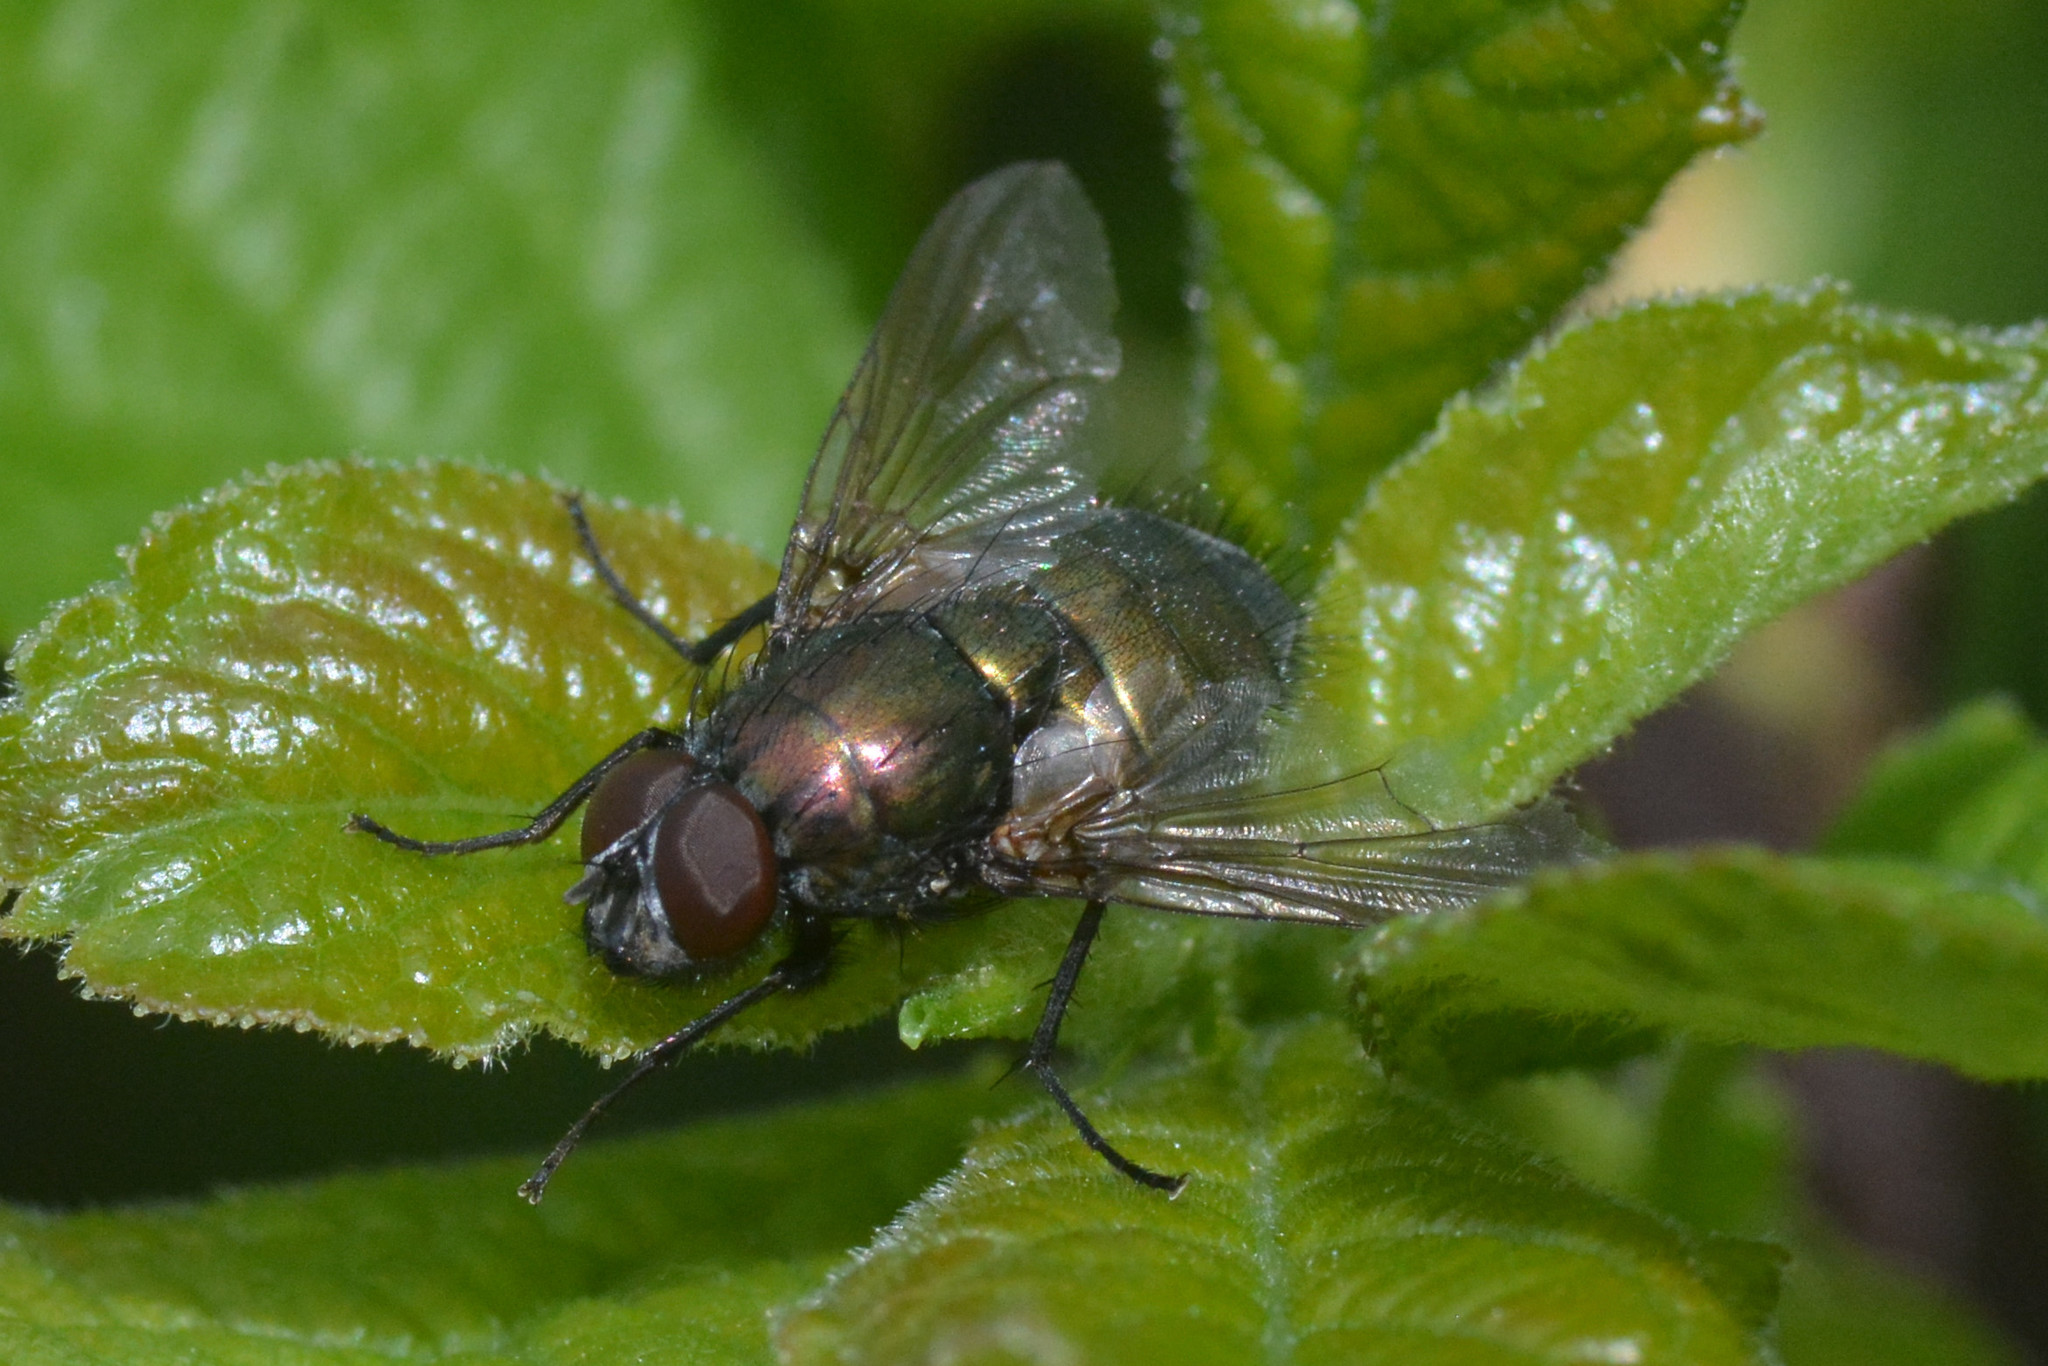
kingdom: Animalia
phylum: Arthropoda
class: Insecta
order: Diptera
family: Muscidae
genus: Dasyphora
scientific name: Dasyphora cyanella
